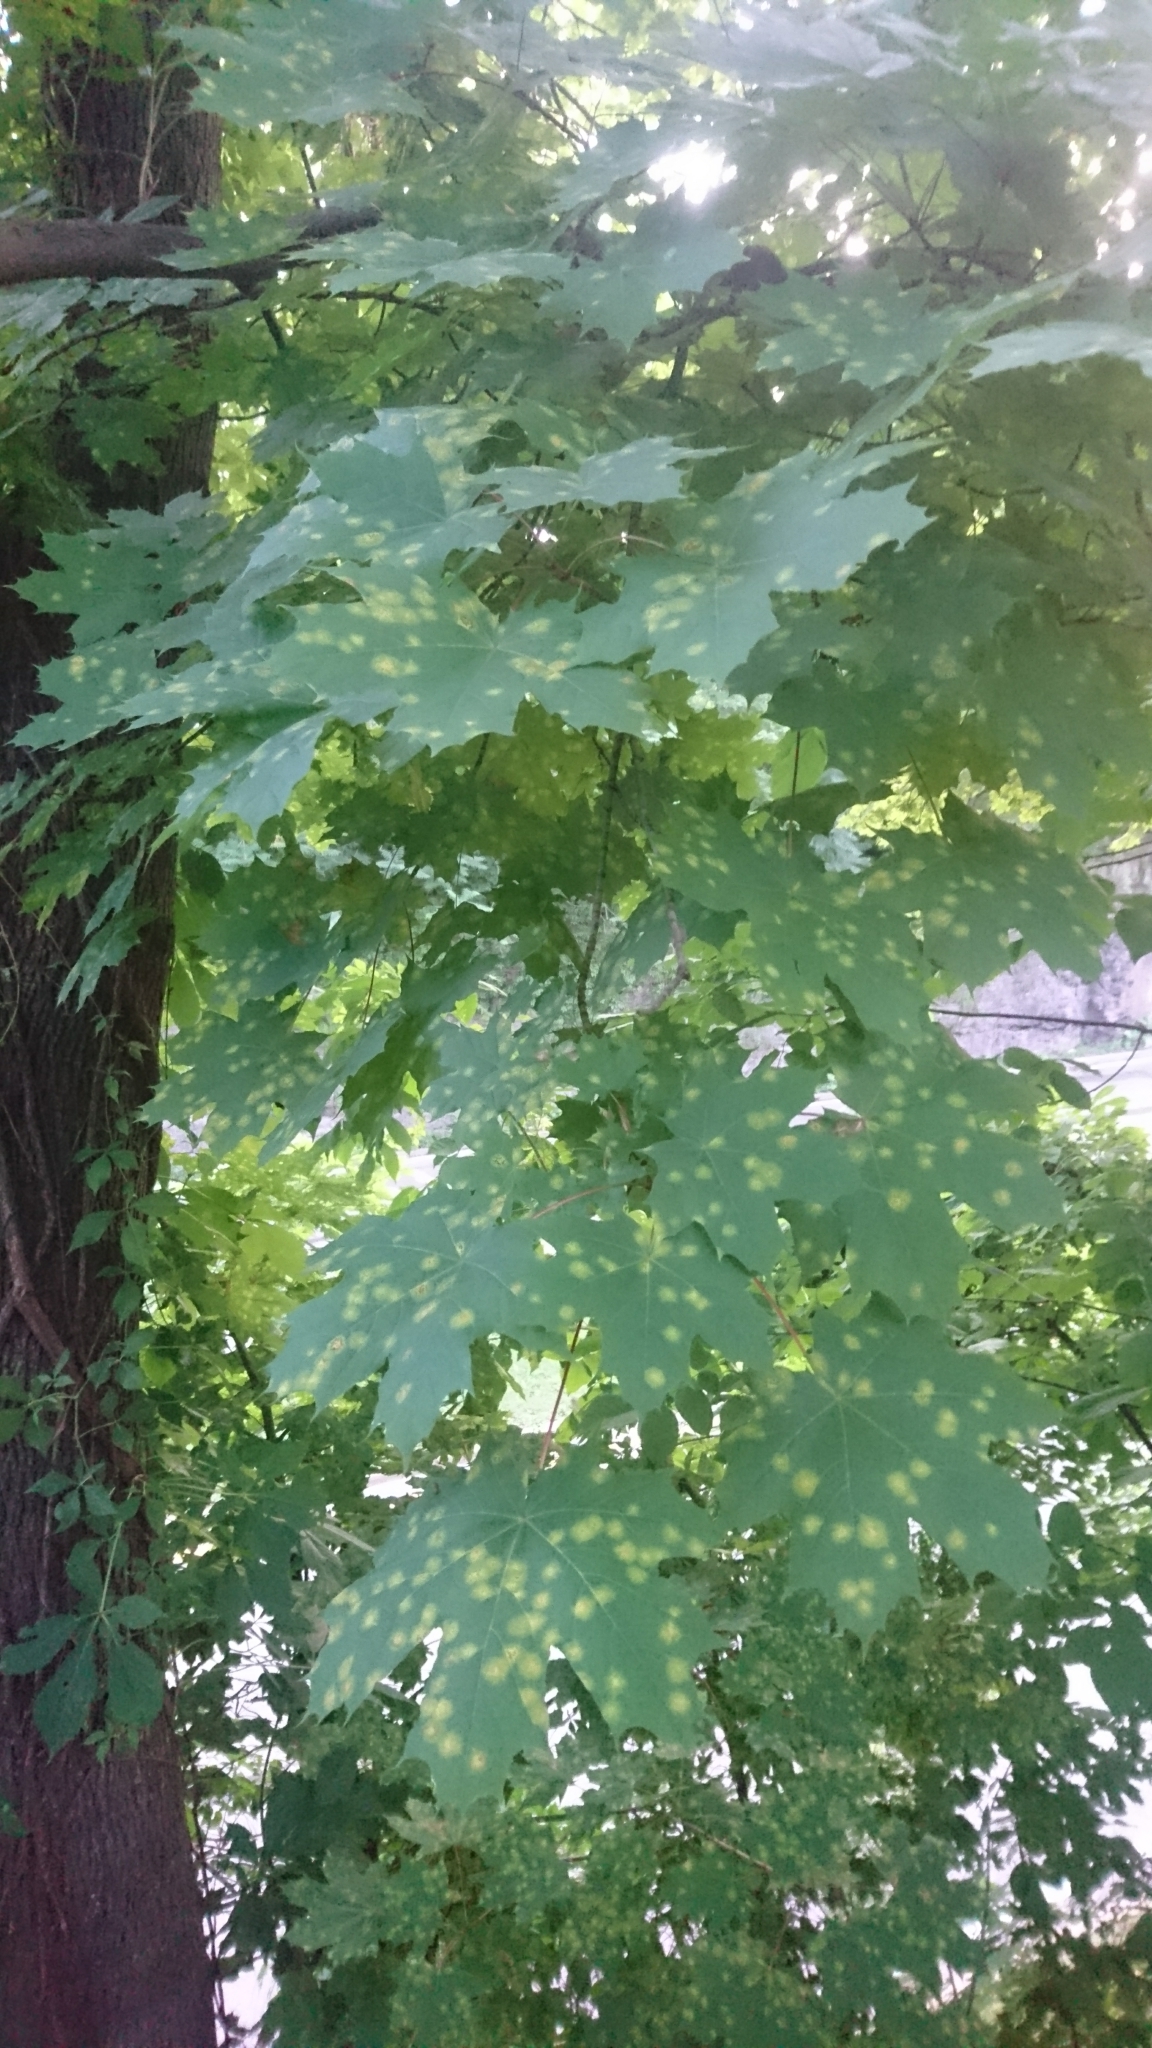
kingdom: Plantae
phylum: Tracheophyta
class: Magnoliopsida
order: Sapindales
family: Sapindaceae
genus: Acer
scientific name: Acer platanoides
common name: Norway maple
